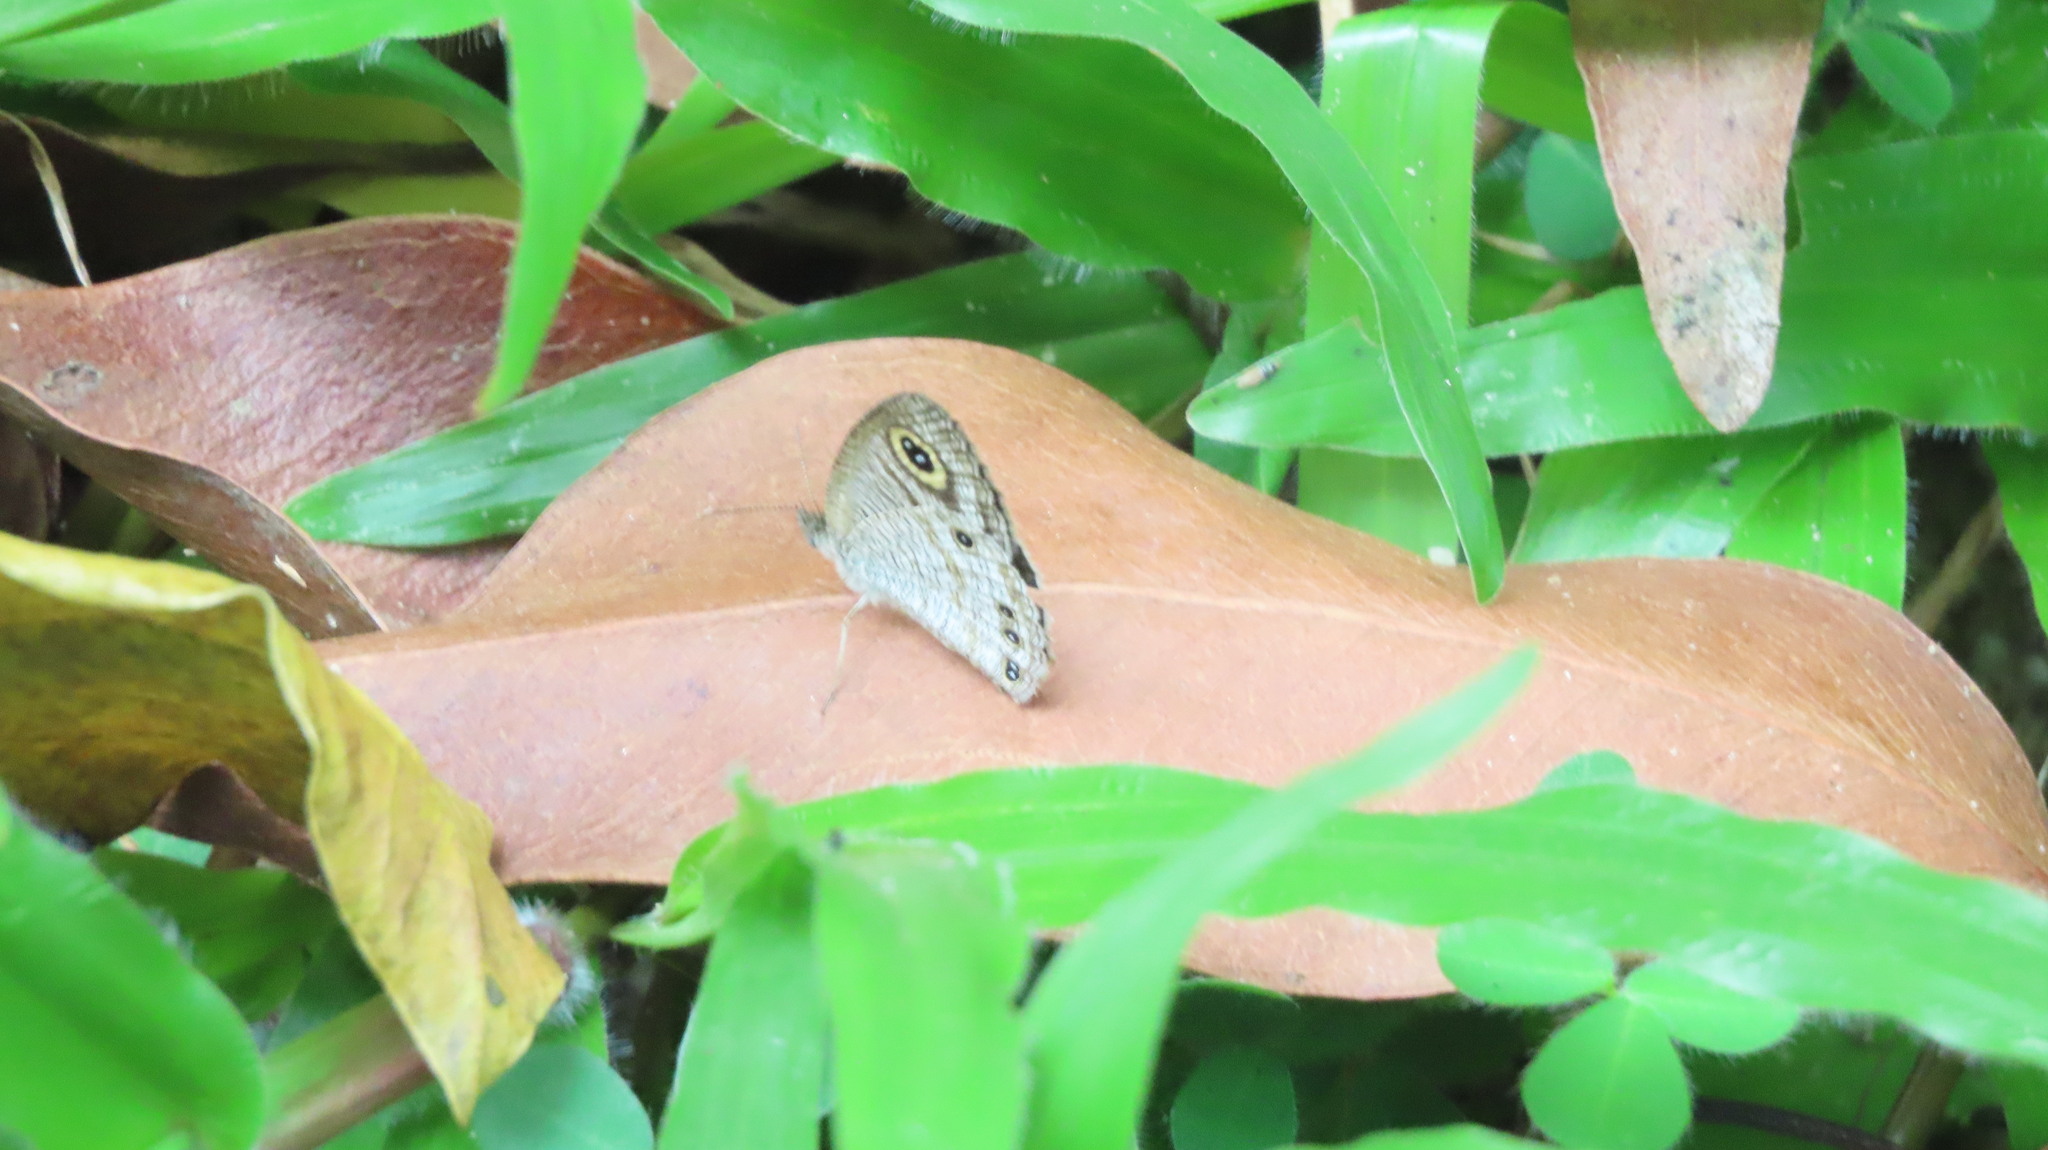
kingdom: Animalia
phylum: Arthropoda
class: Insecta
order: Lepidoptera
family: Nymphalidae
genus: Ypthima
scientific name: Ypthima huebneri
